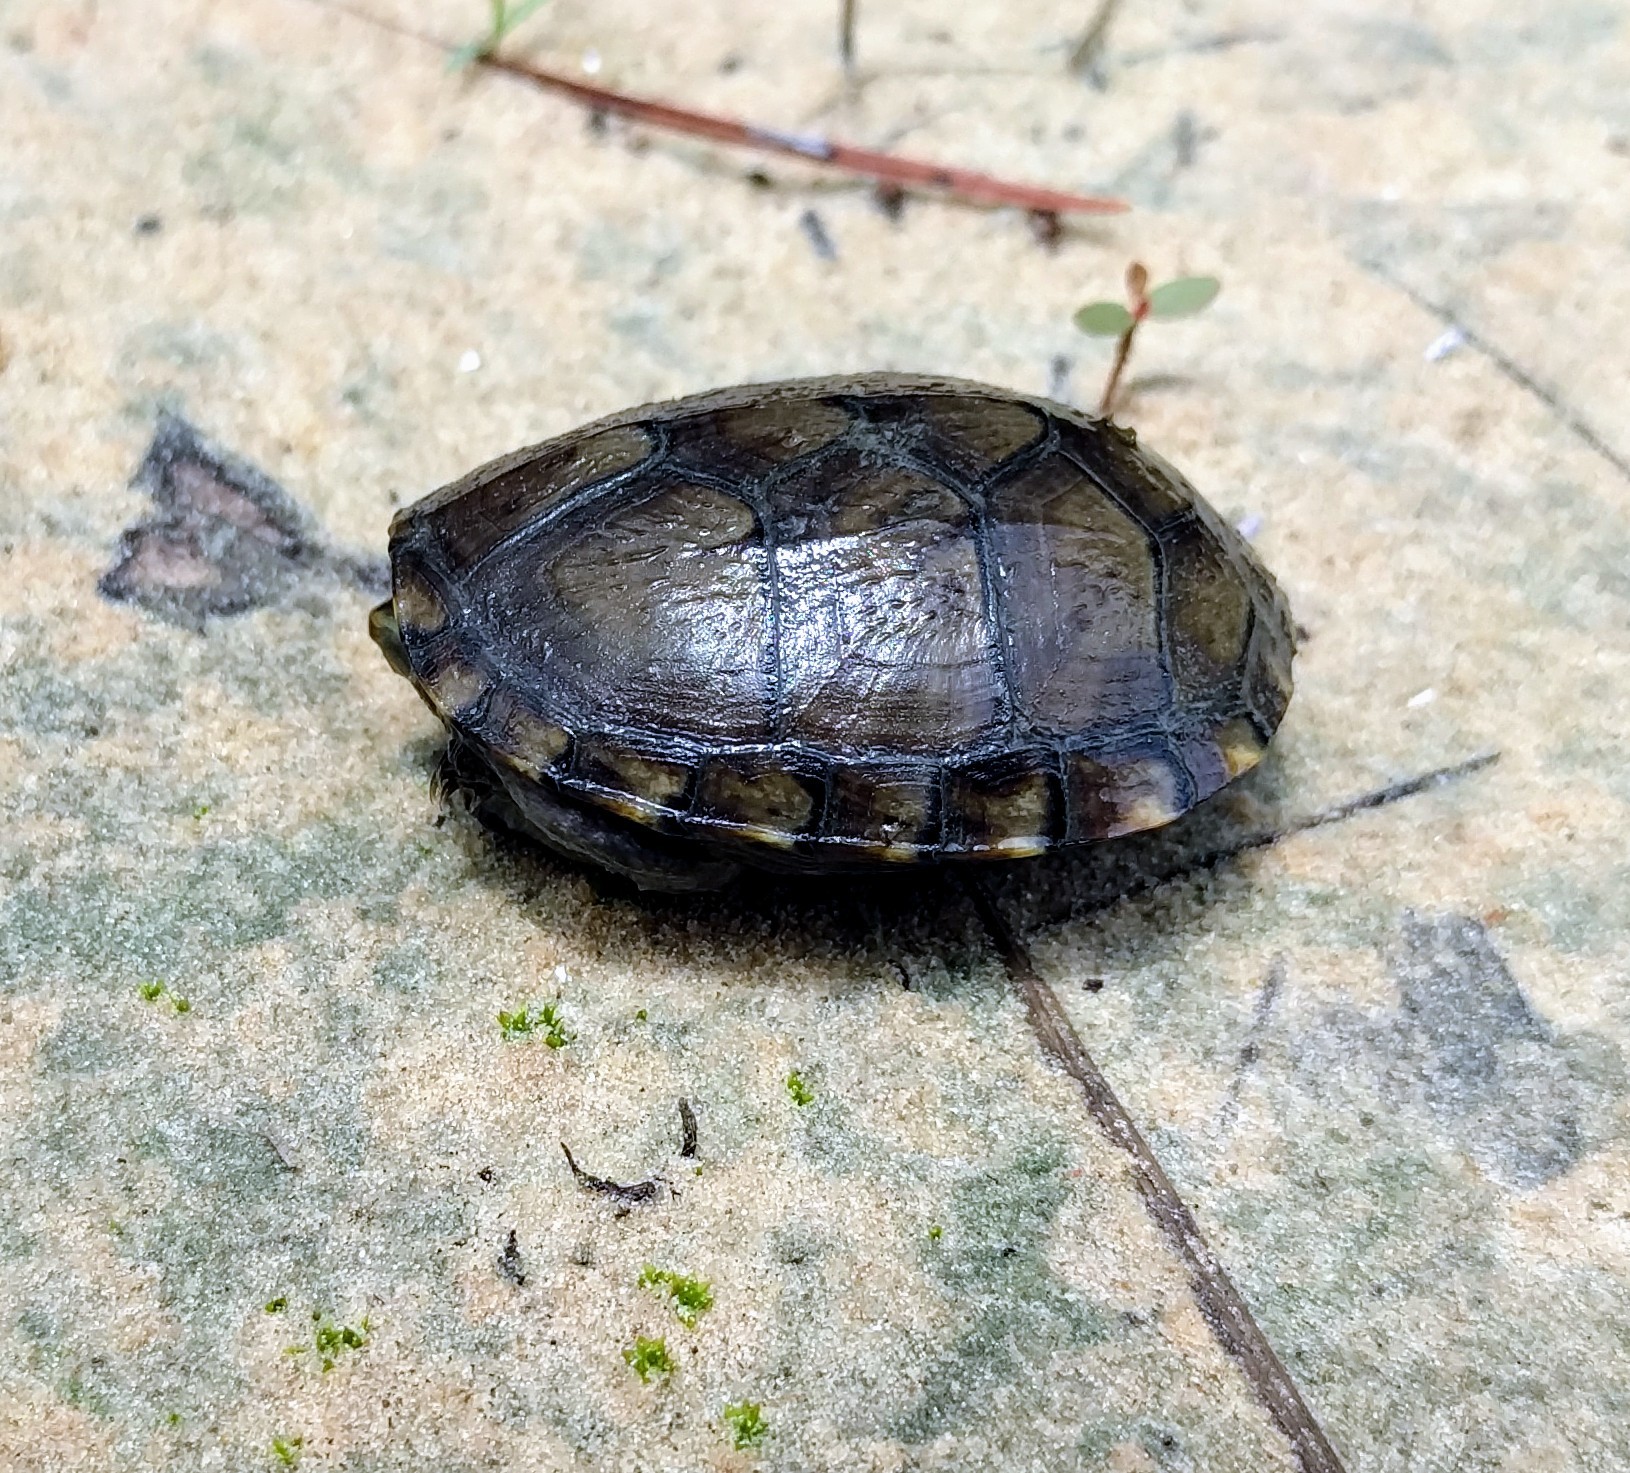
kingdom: Animalia
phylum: Chordata
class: Testudines
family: Kinosternidae
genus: Kinosternon
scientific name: Kinosternon subrubrum
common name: Eastern mud turtle
